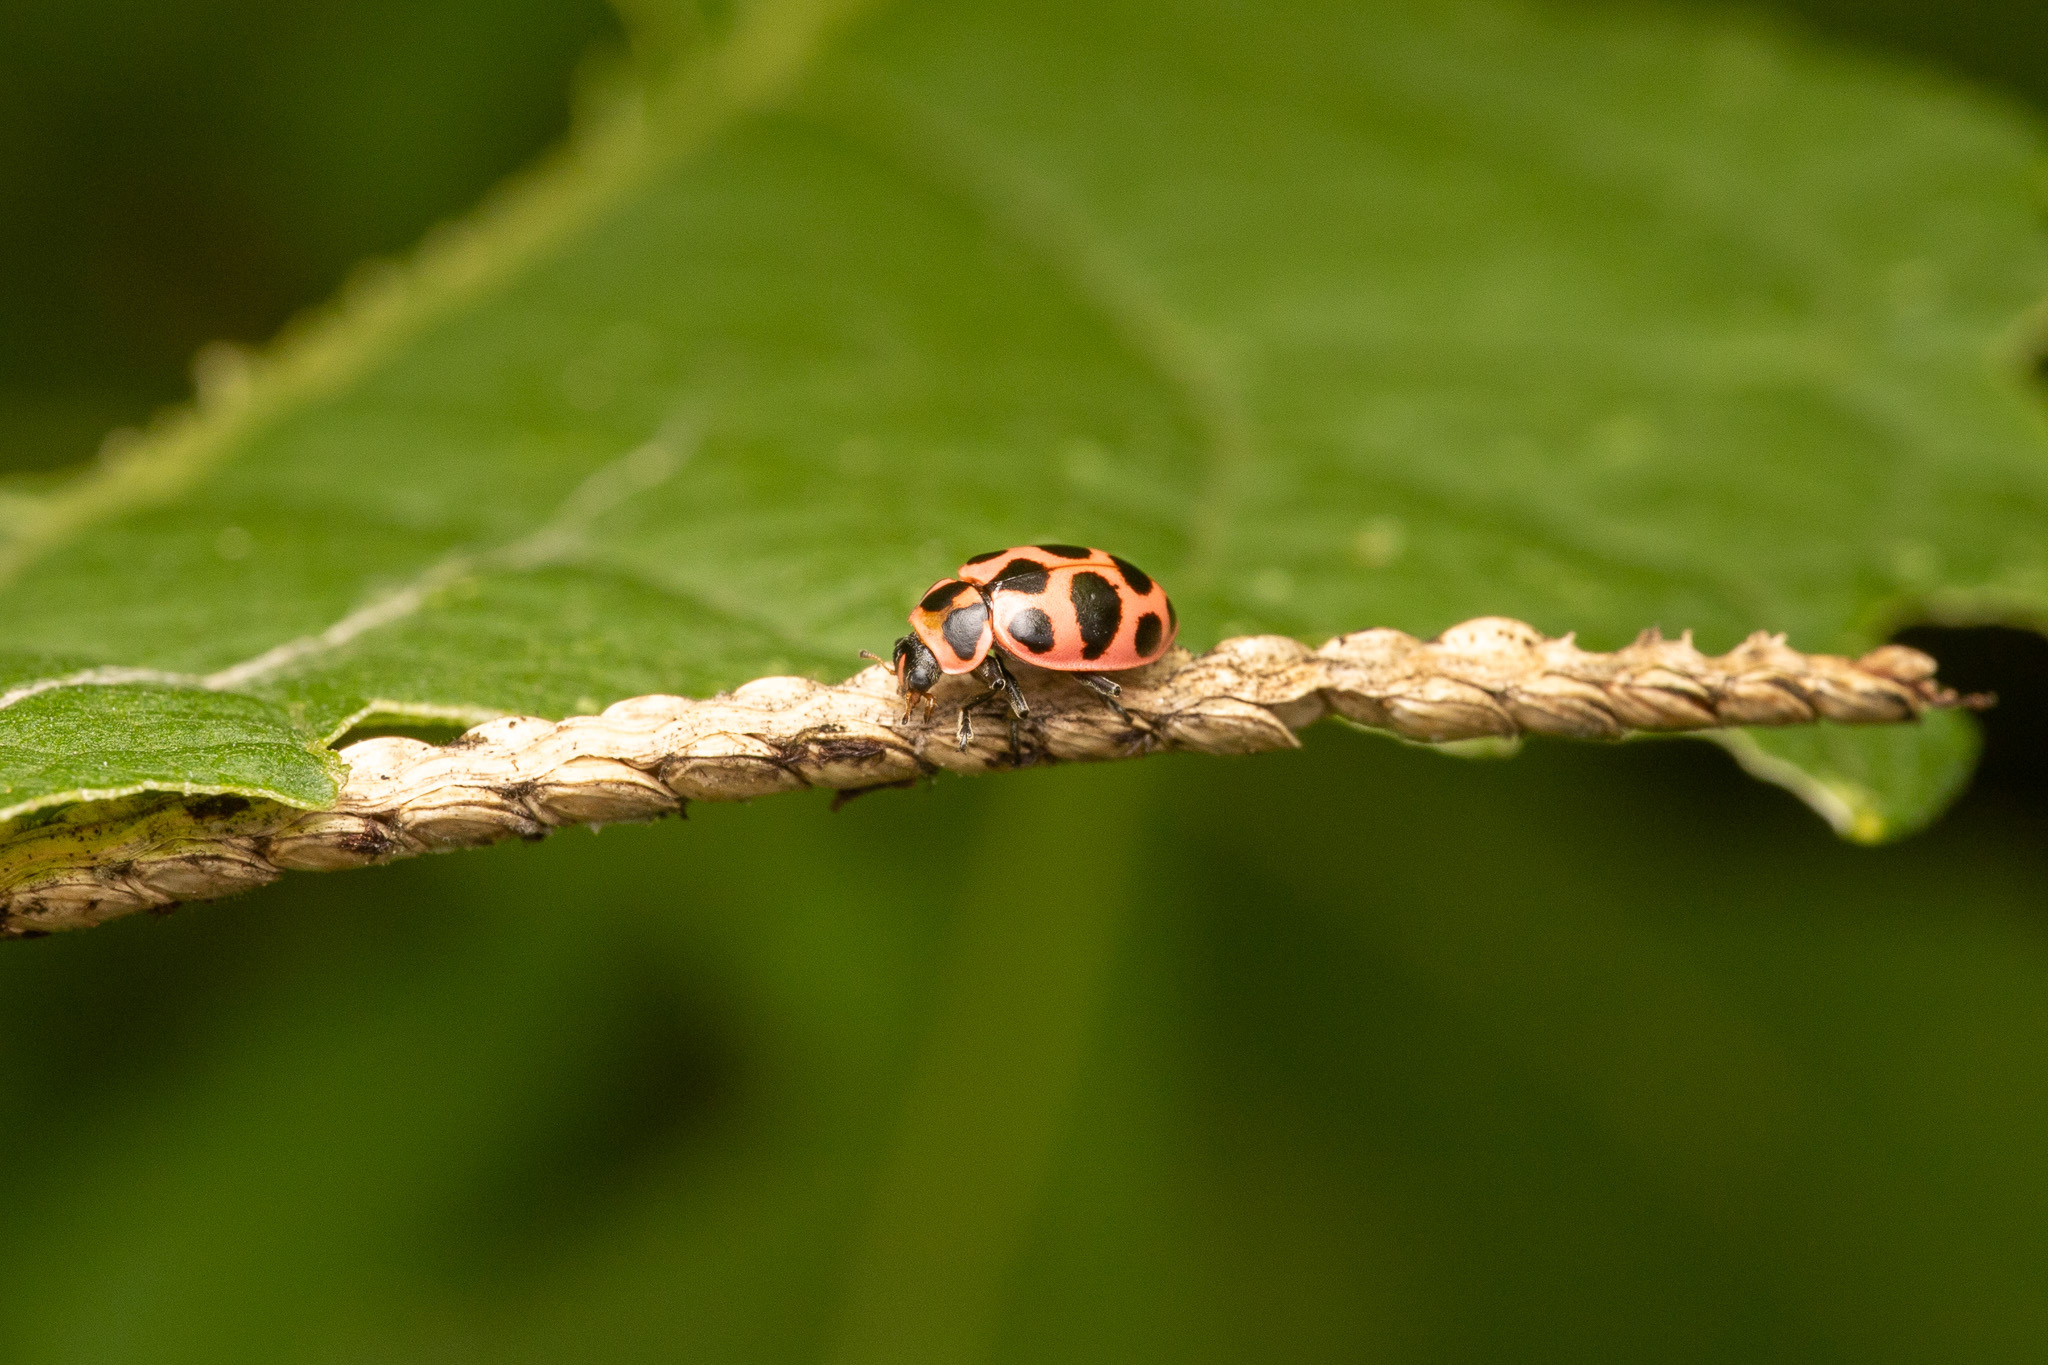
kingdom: Animalia
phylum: Arthropoda
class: Insecta
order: Coleoptera
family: Coccinellidae
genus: Coleomegilla
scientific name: Coleomegilla maculata
